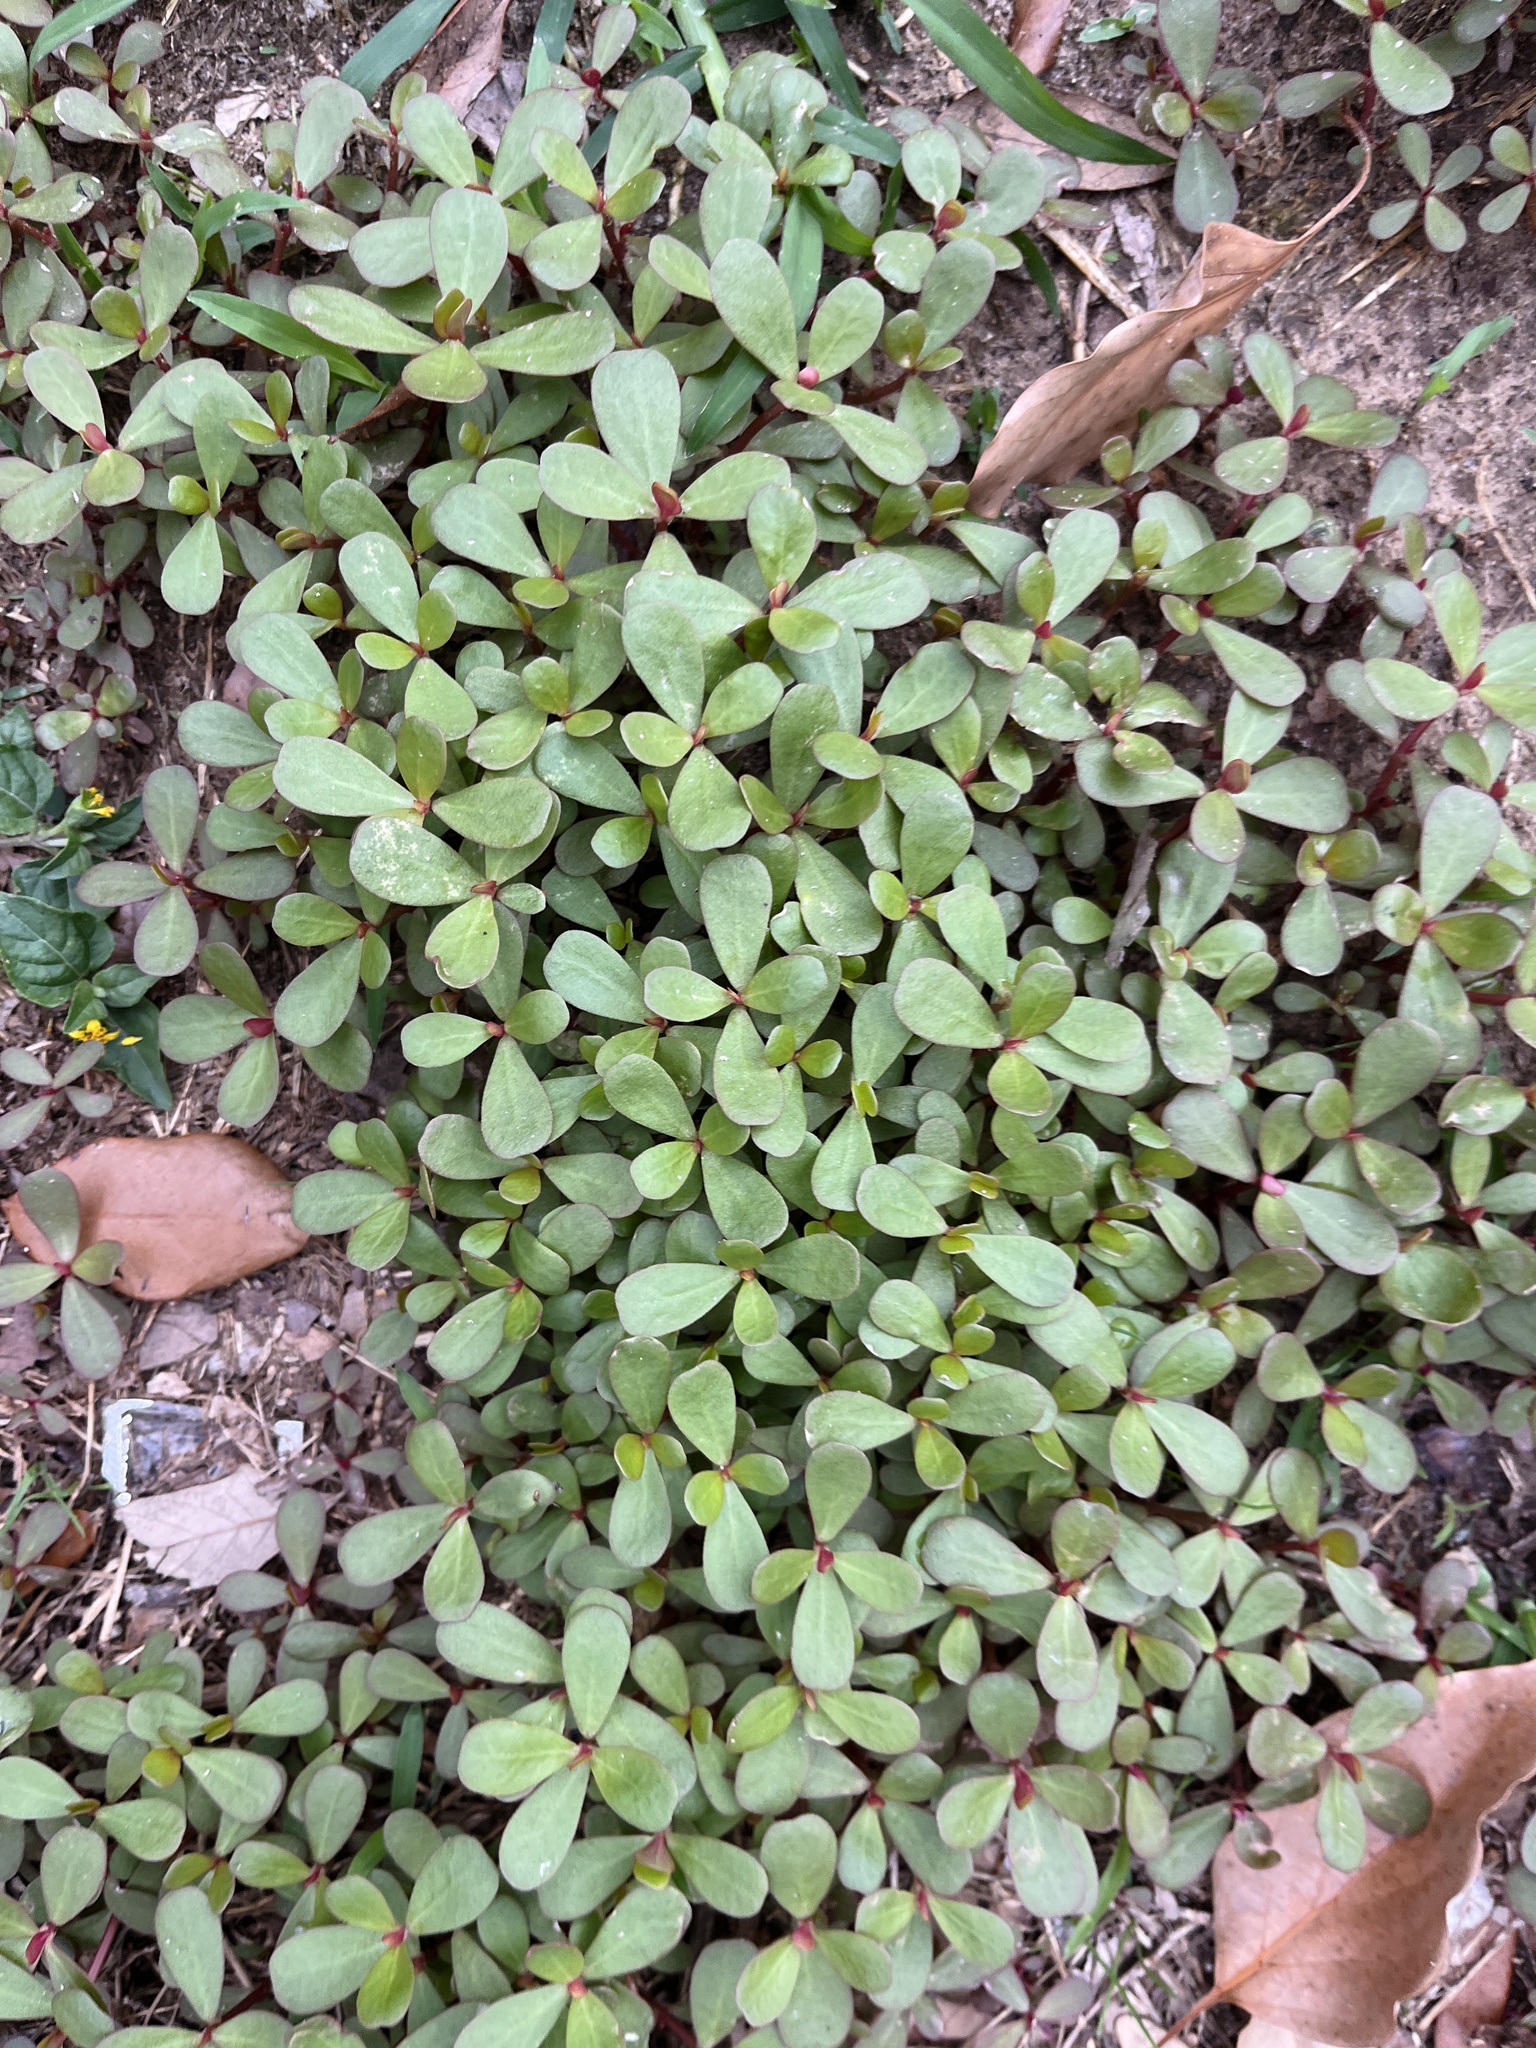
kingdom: Plantae
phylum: Tracheophyta
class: Magnoliopsida
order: Caryophyllales
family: Portulacaceae
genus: Portulaca
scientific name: Portulaca oleracea
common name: Common purslane
